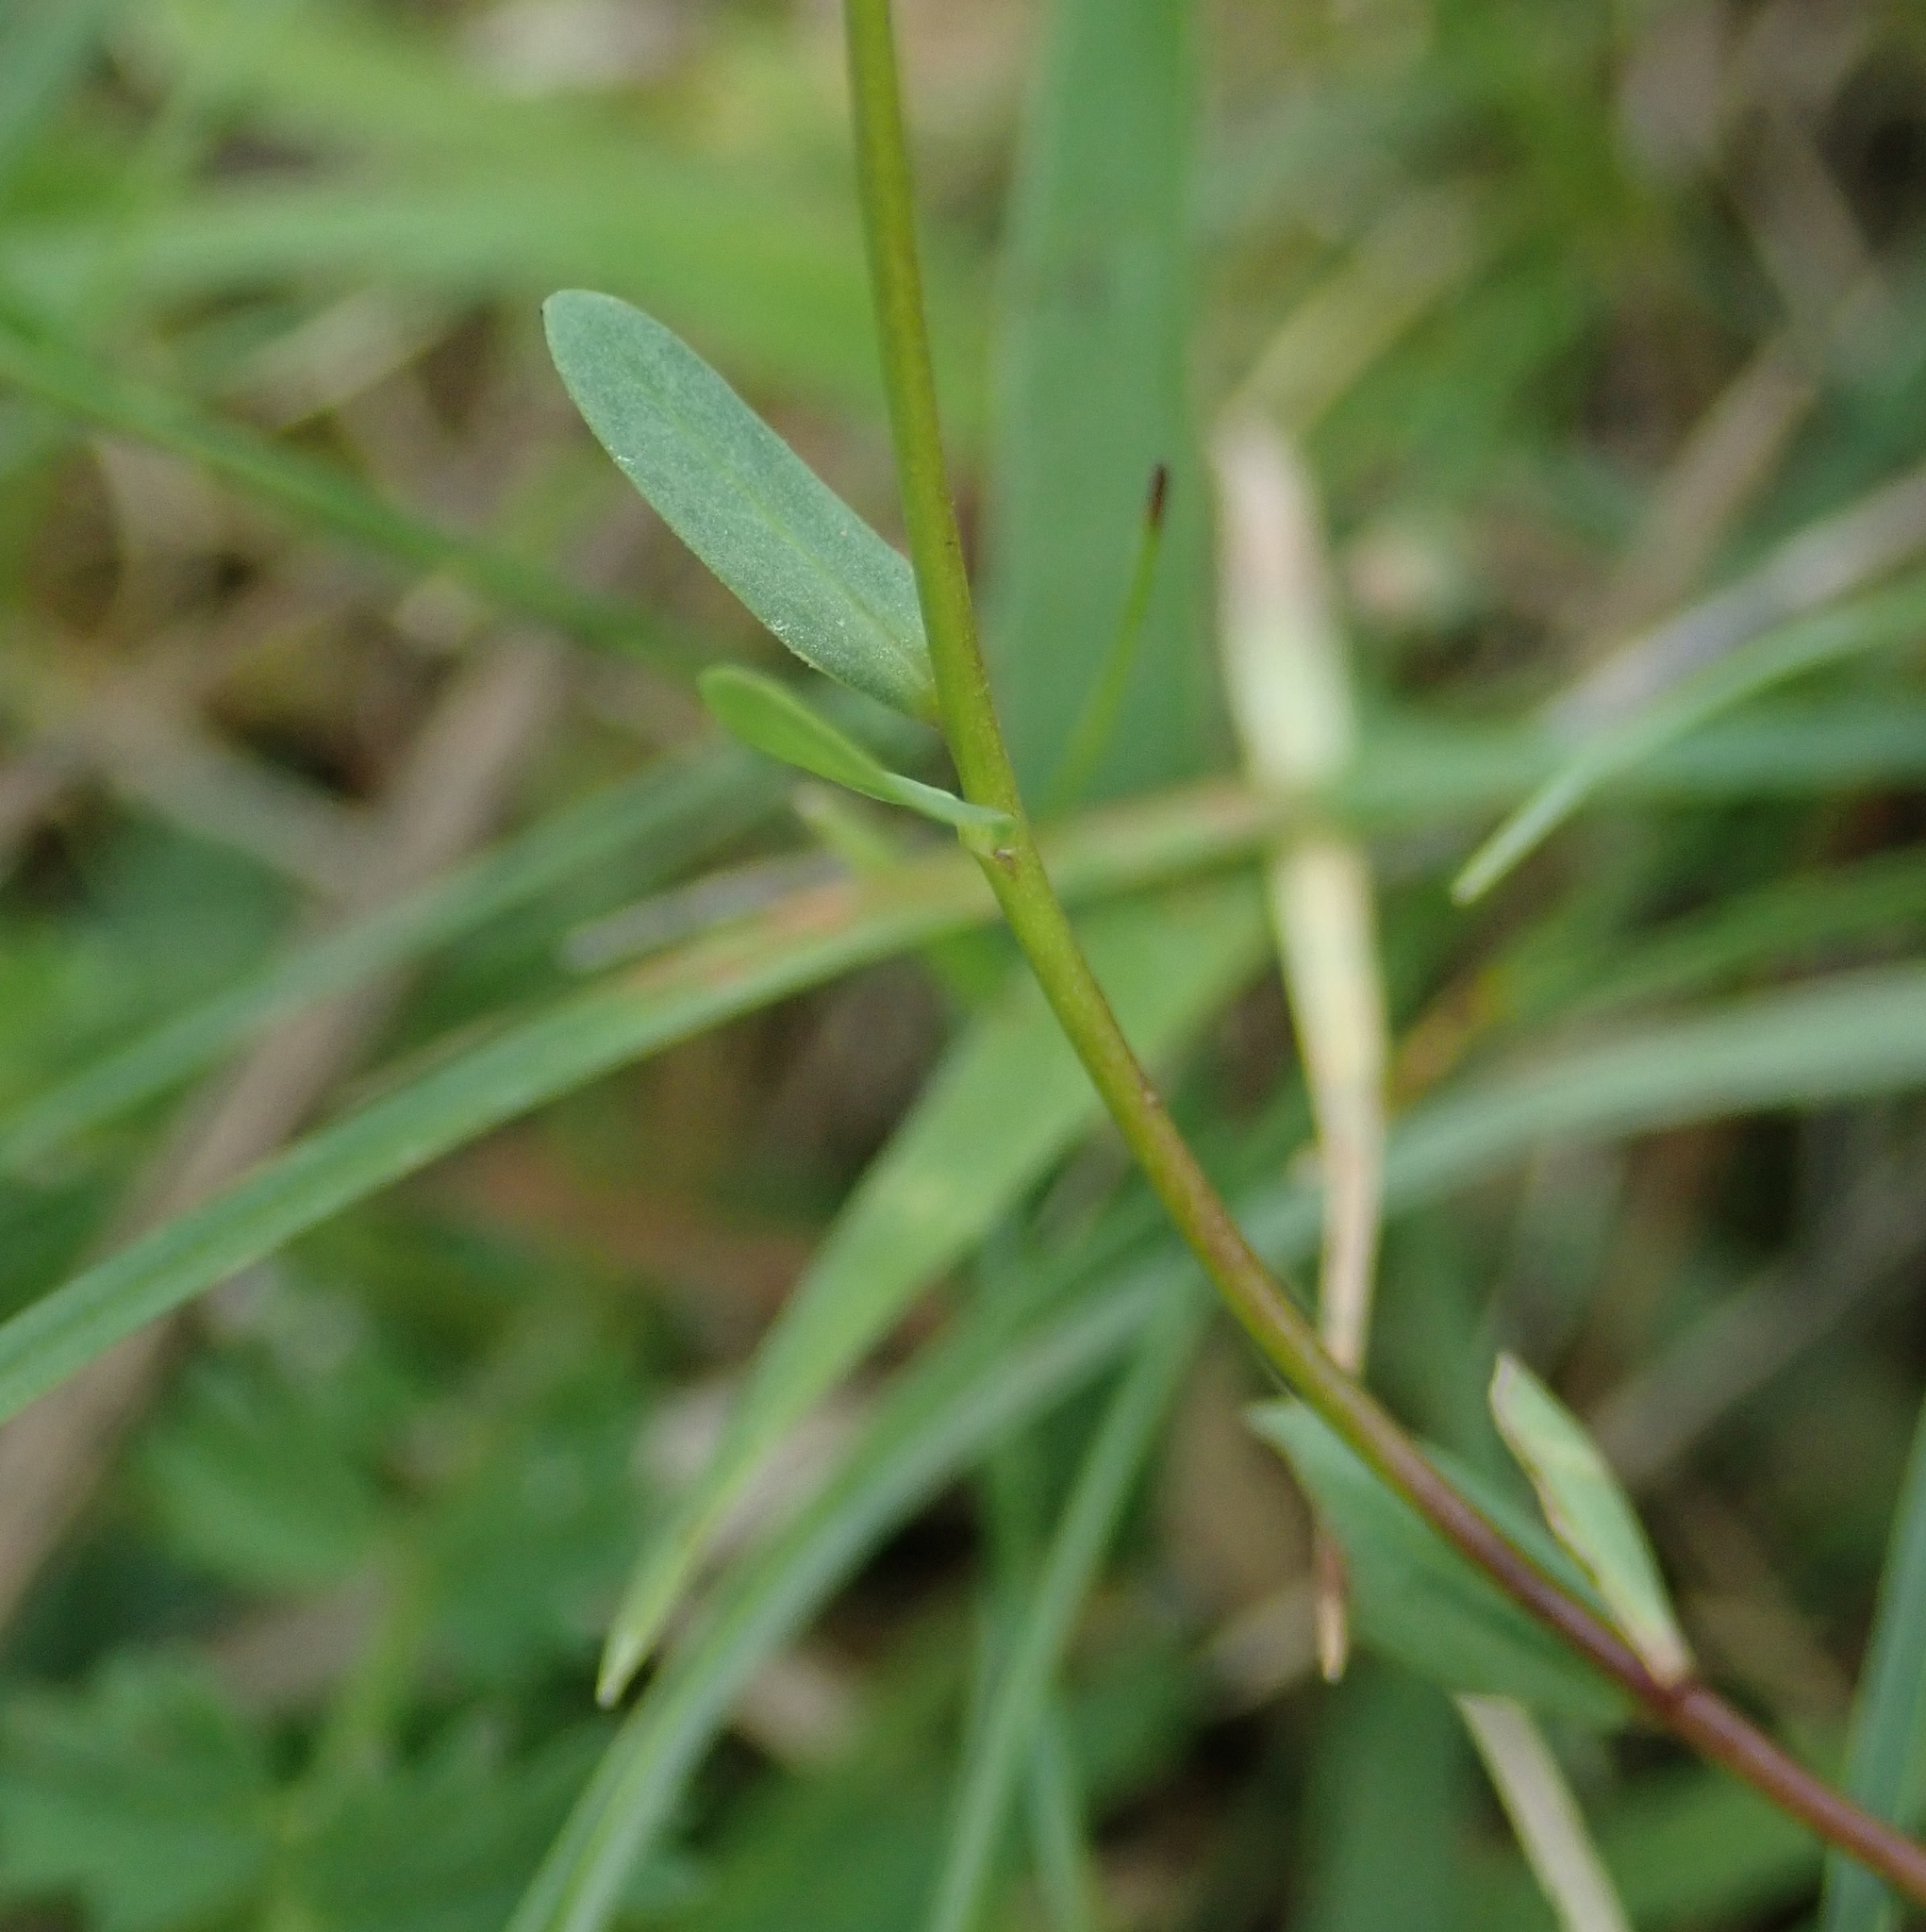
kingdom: Plantae
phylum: Tracheophyta
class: Magnoliopsida
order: Malpighiales
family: Linaceae
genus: Linum
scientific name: Linum catharticum
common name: Fairy flax
